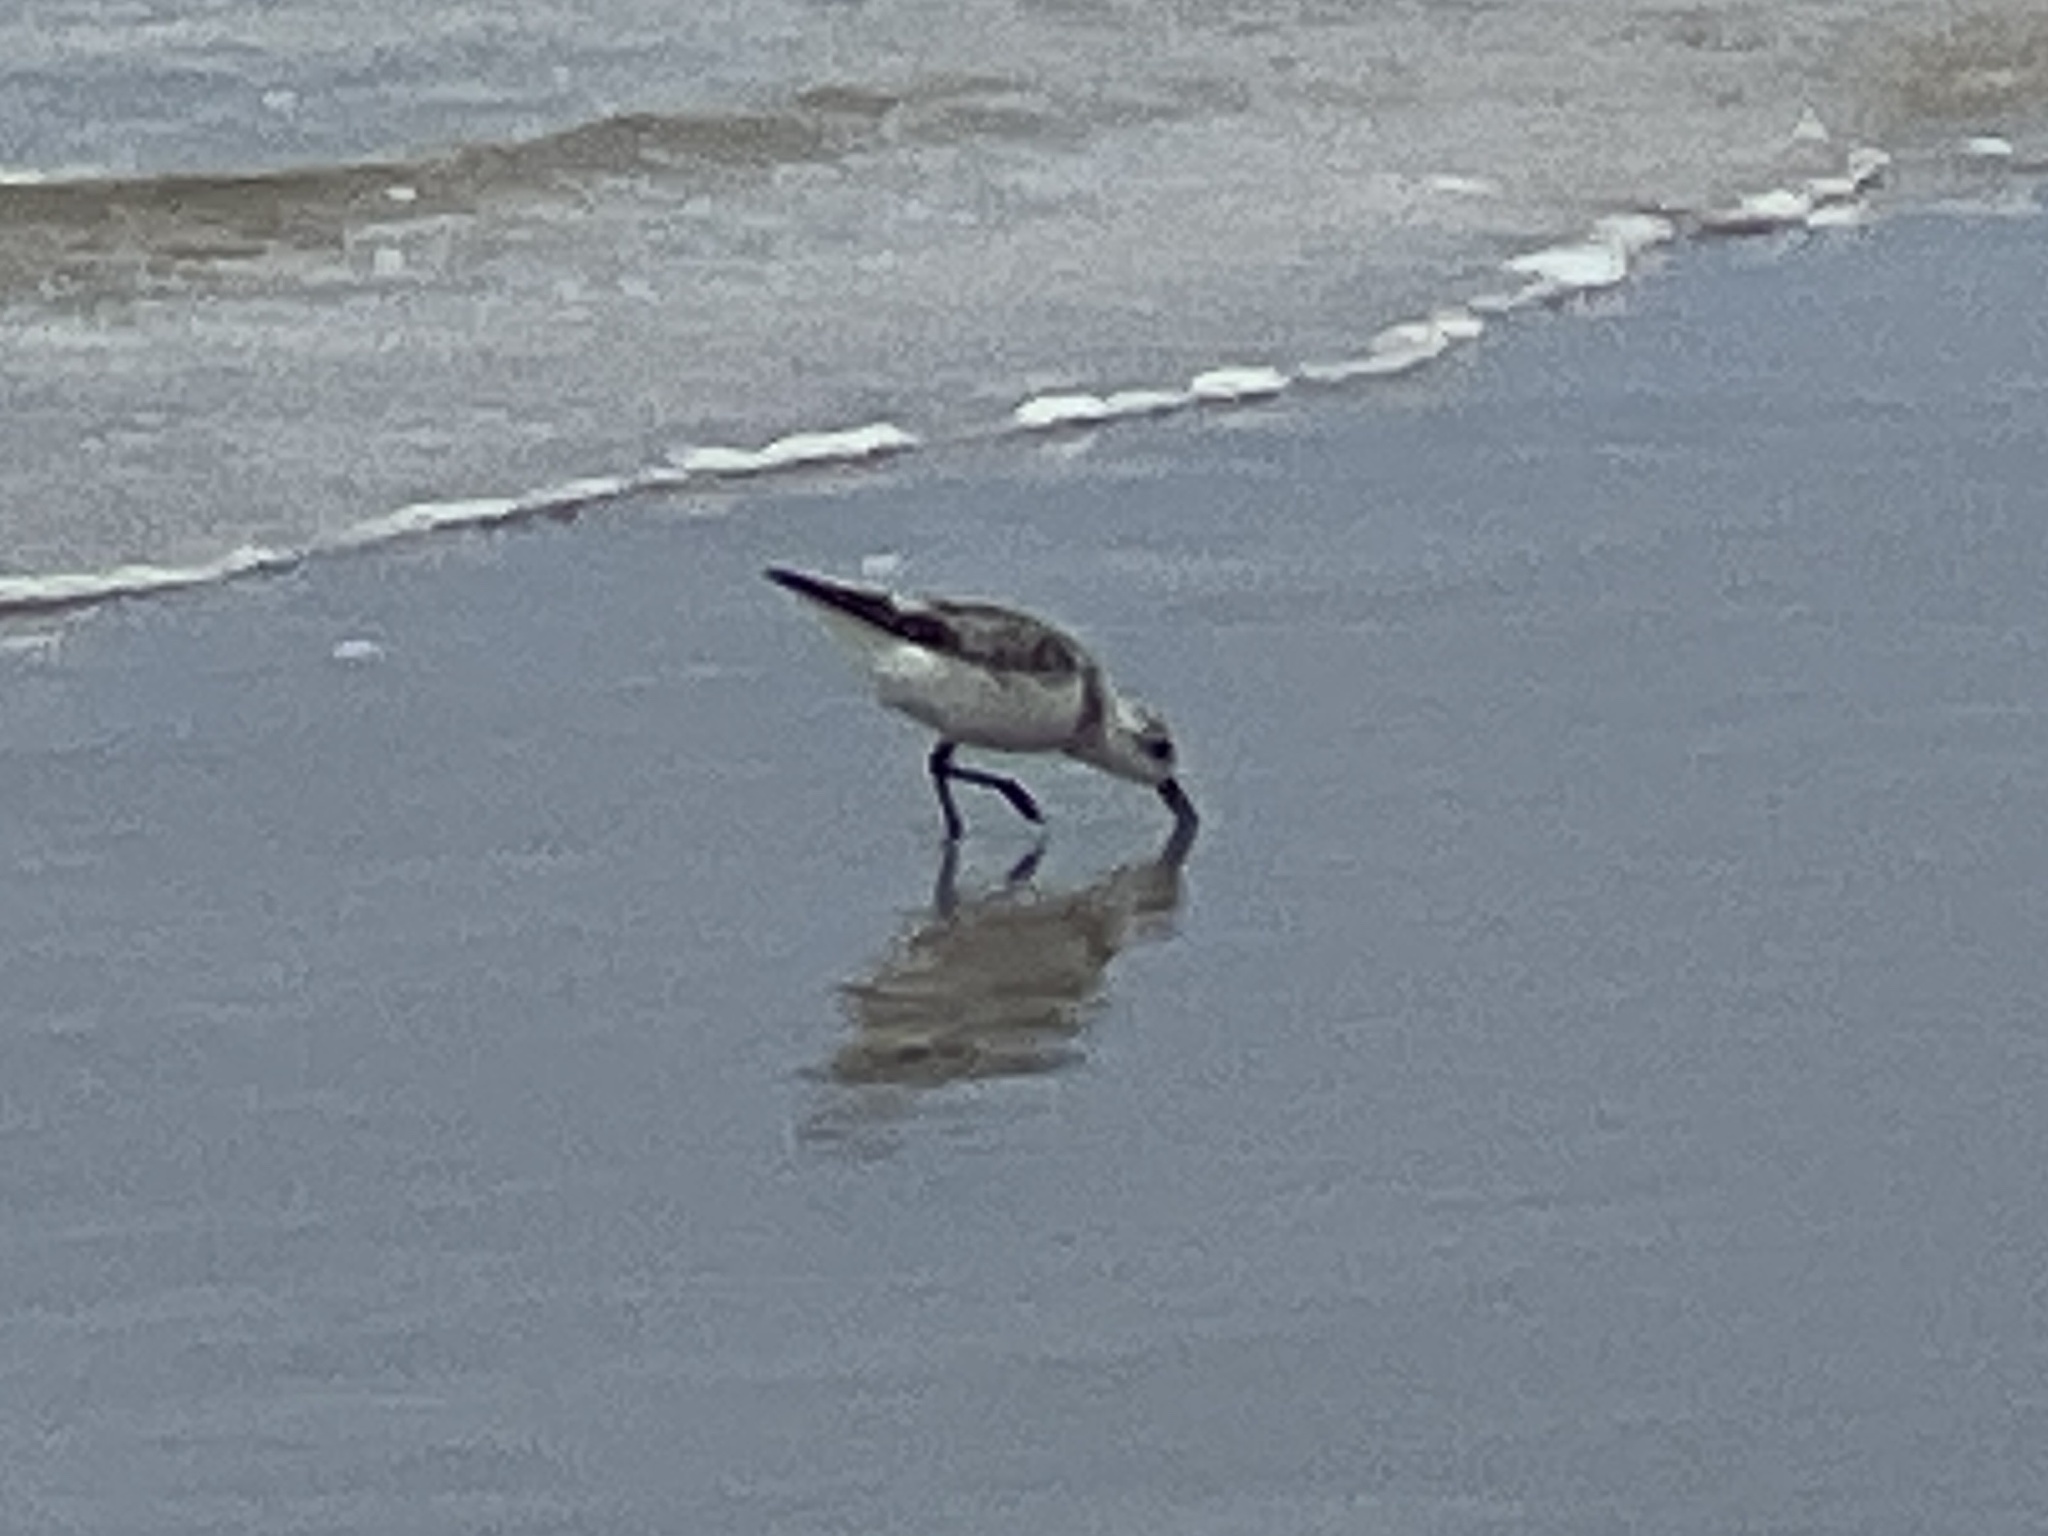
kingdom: Animalia
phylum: Chordata
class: Aves
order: Charadriiformes
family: Scolopacidae
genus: Calidris
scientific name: Calidris alba
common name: Sanderling
